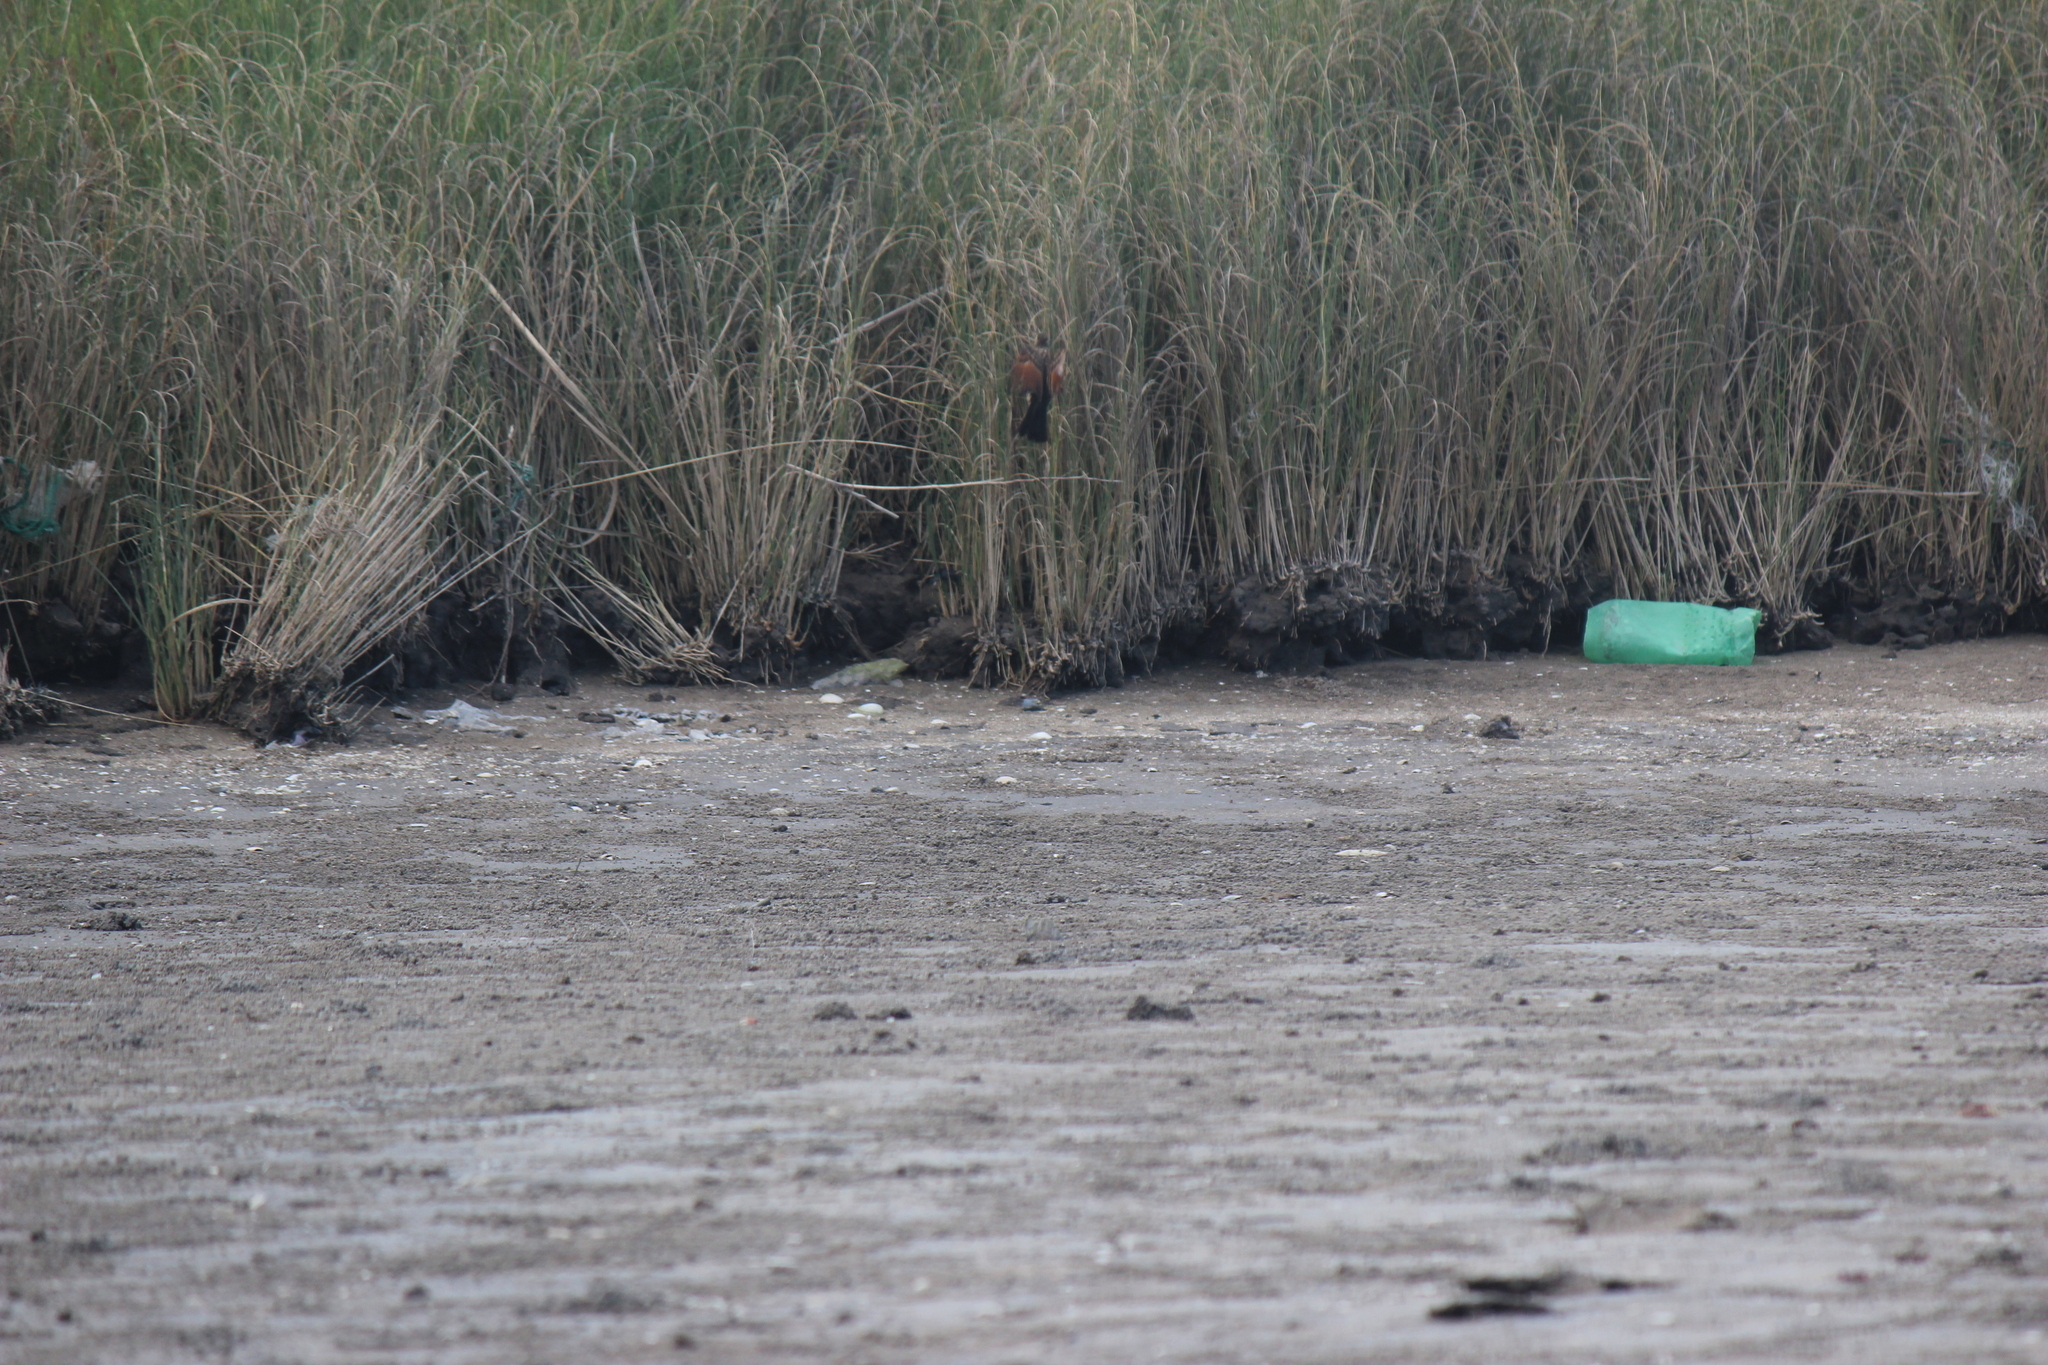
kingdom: Animalia
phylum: Chordata
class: Aves
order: Passeriformes
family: Tyrannidae
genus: Hymenops
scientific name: Hymenops perspicillatus
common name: Spectacled tyrant
